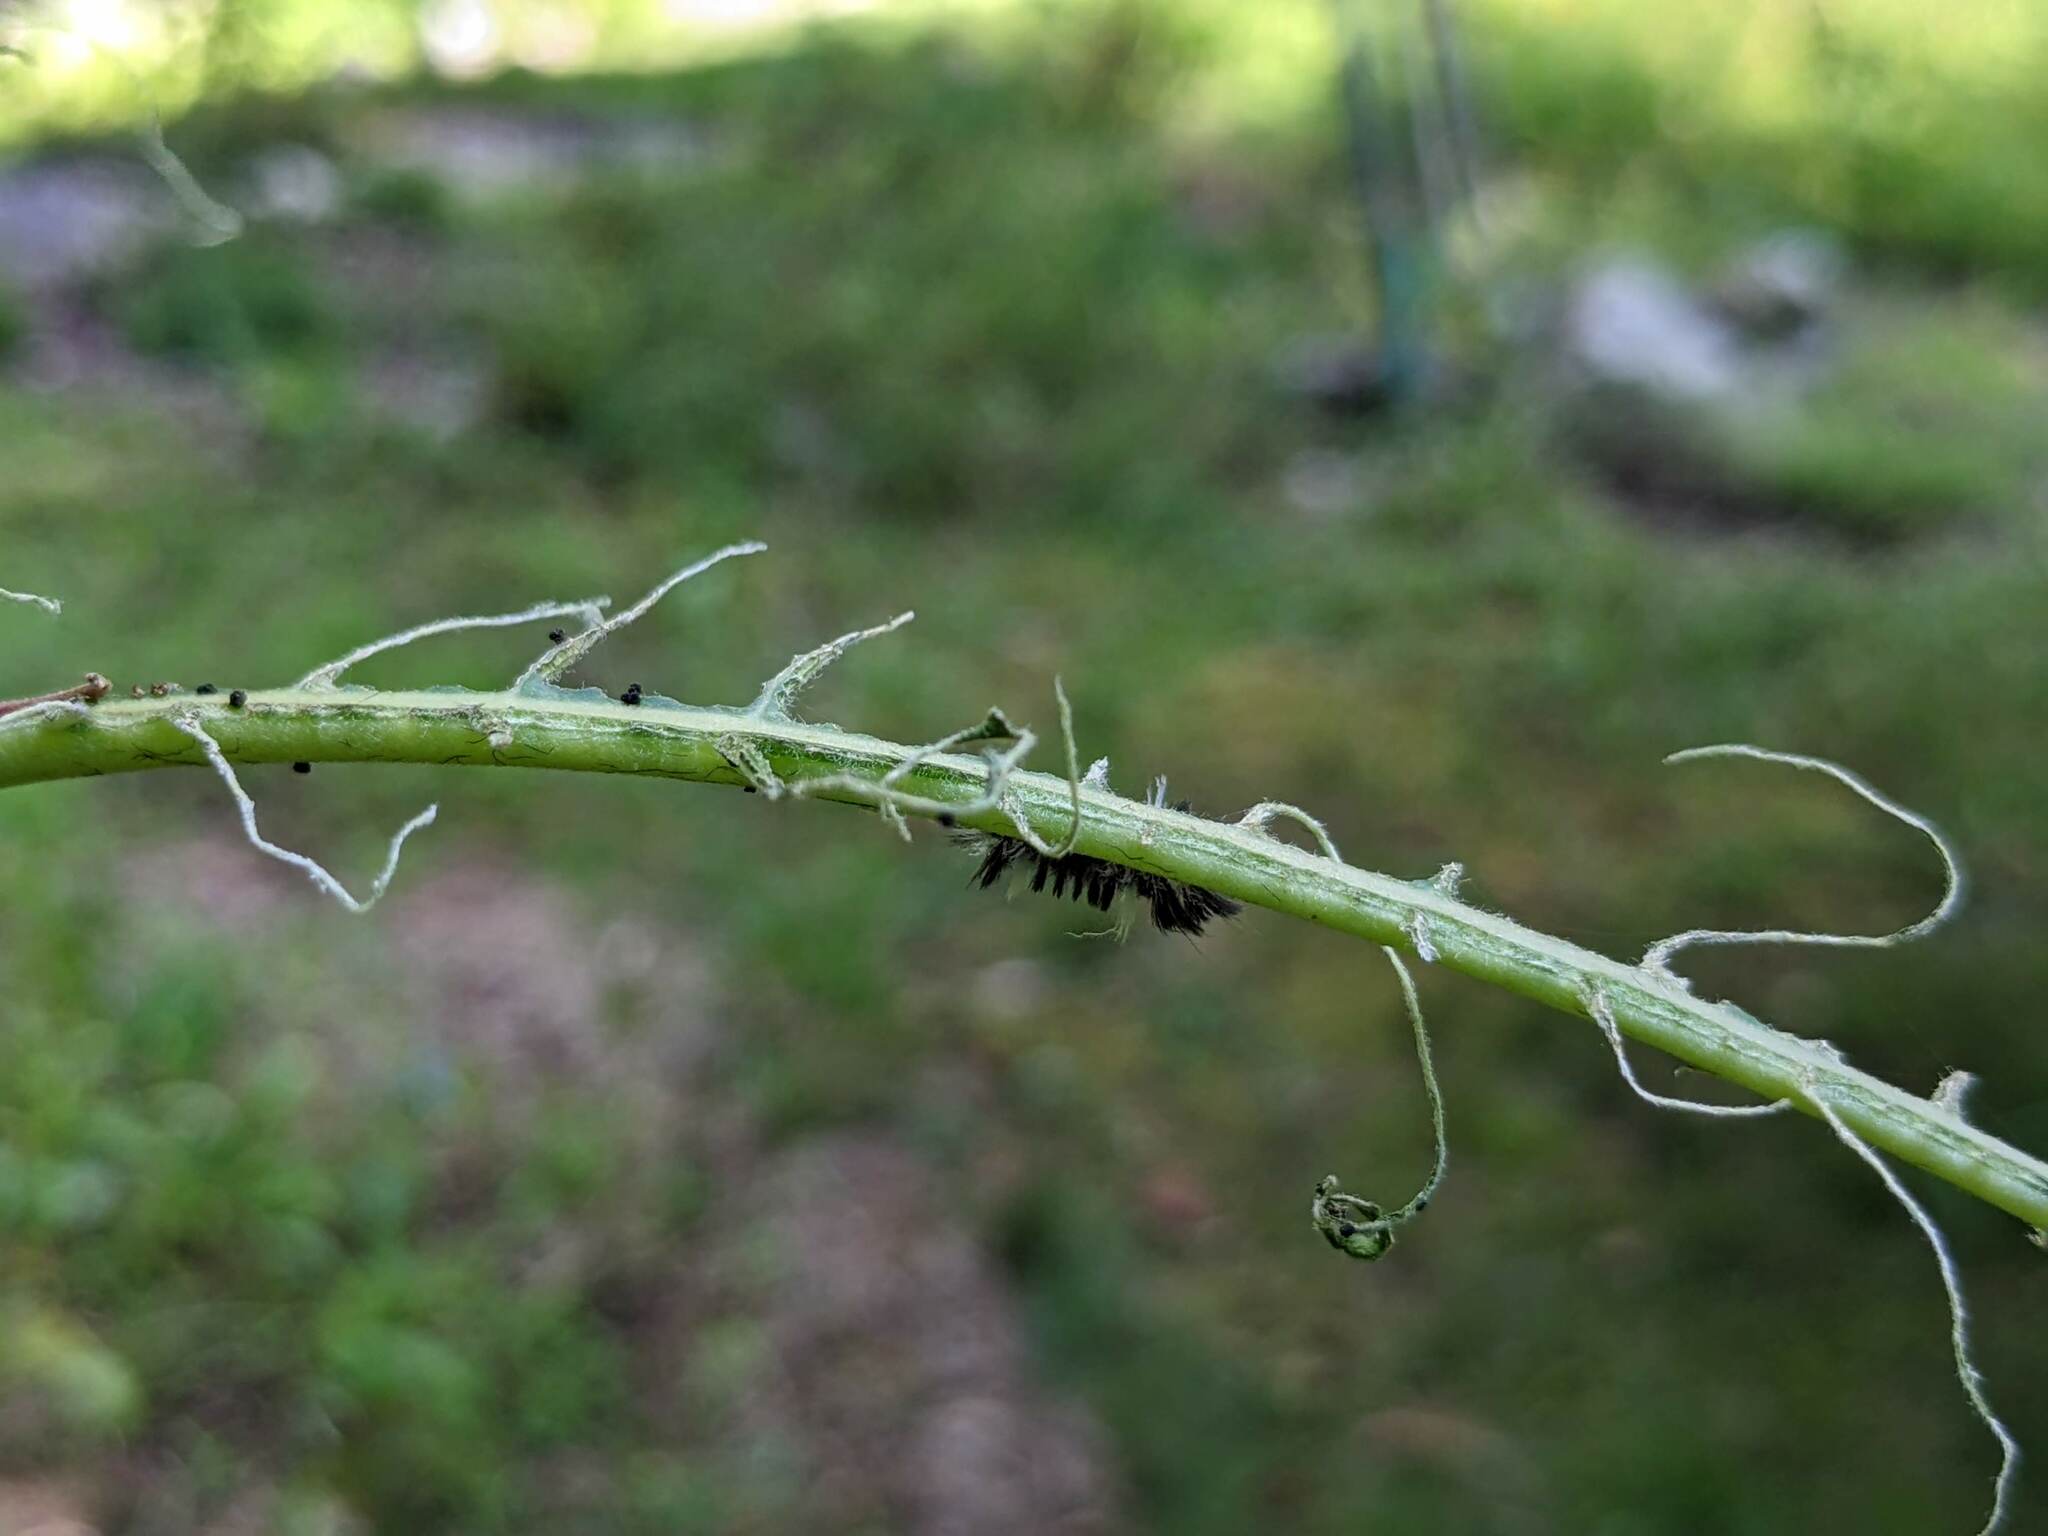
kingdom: Animalia
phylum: Arthropoda
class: Insecta
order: Lepidoptera
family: Erebidae
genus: Euchaetes
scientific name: Euchaetes egle
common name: Milkweed tussock moth
